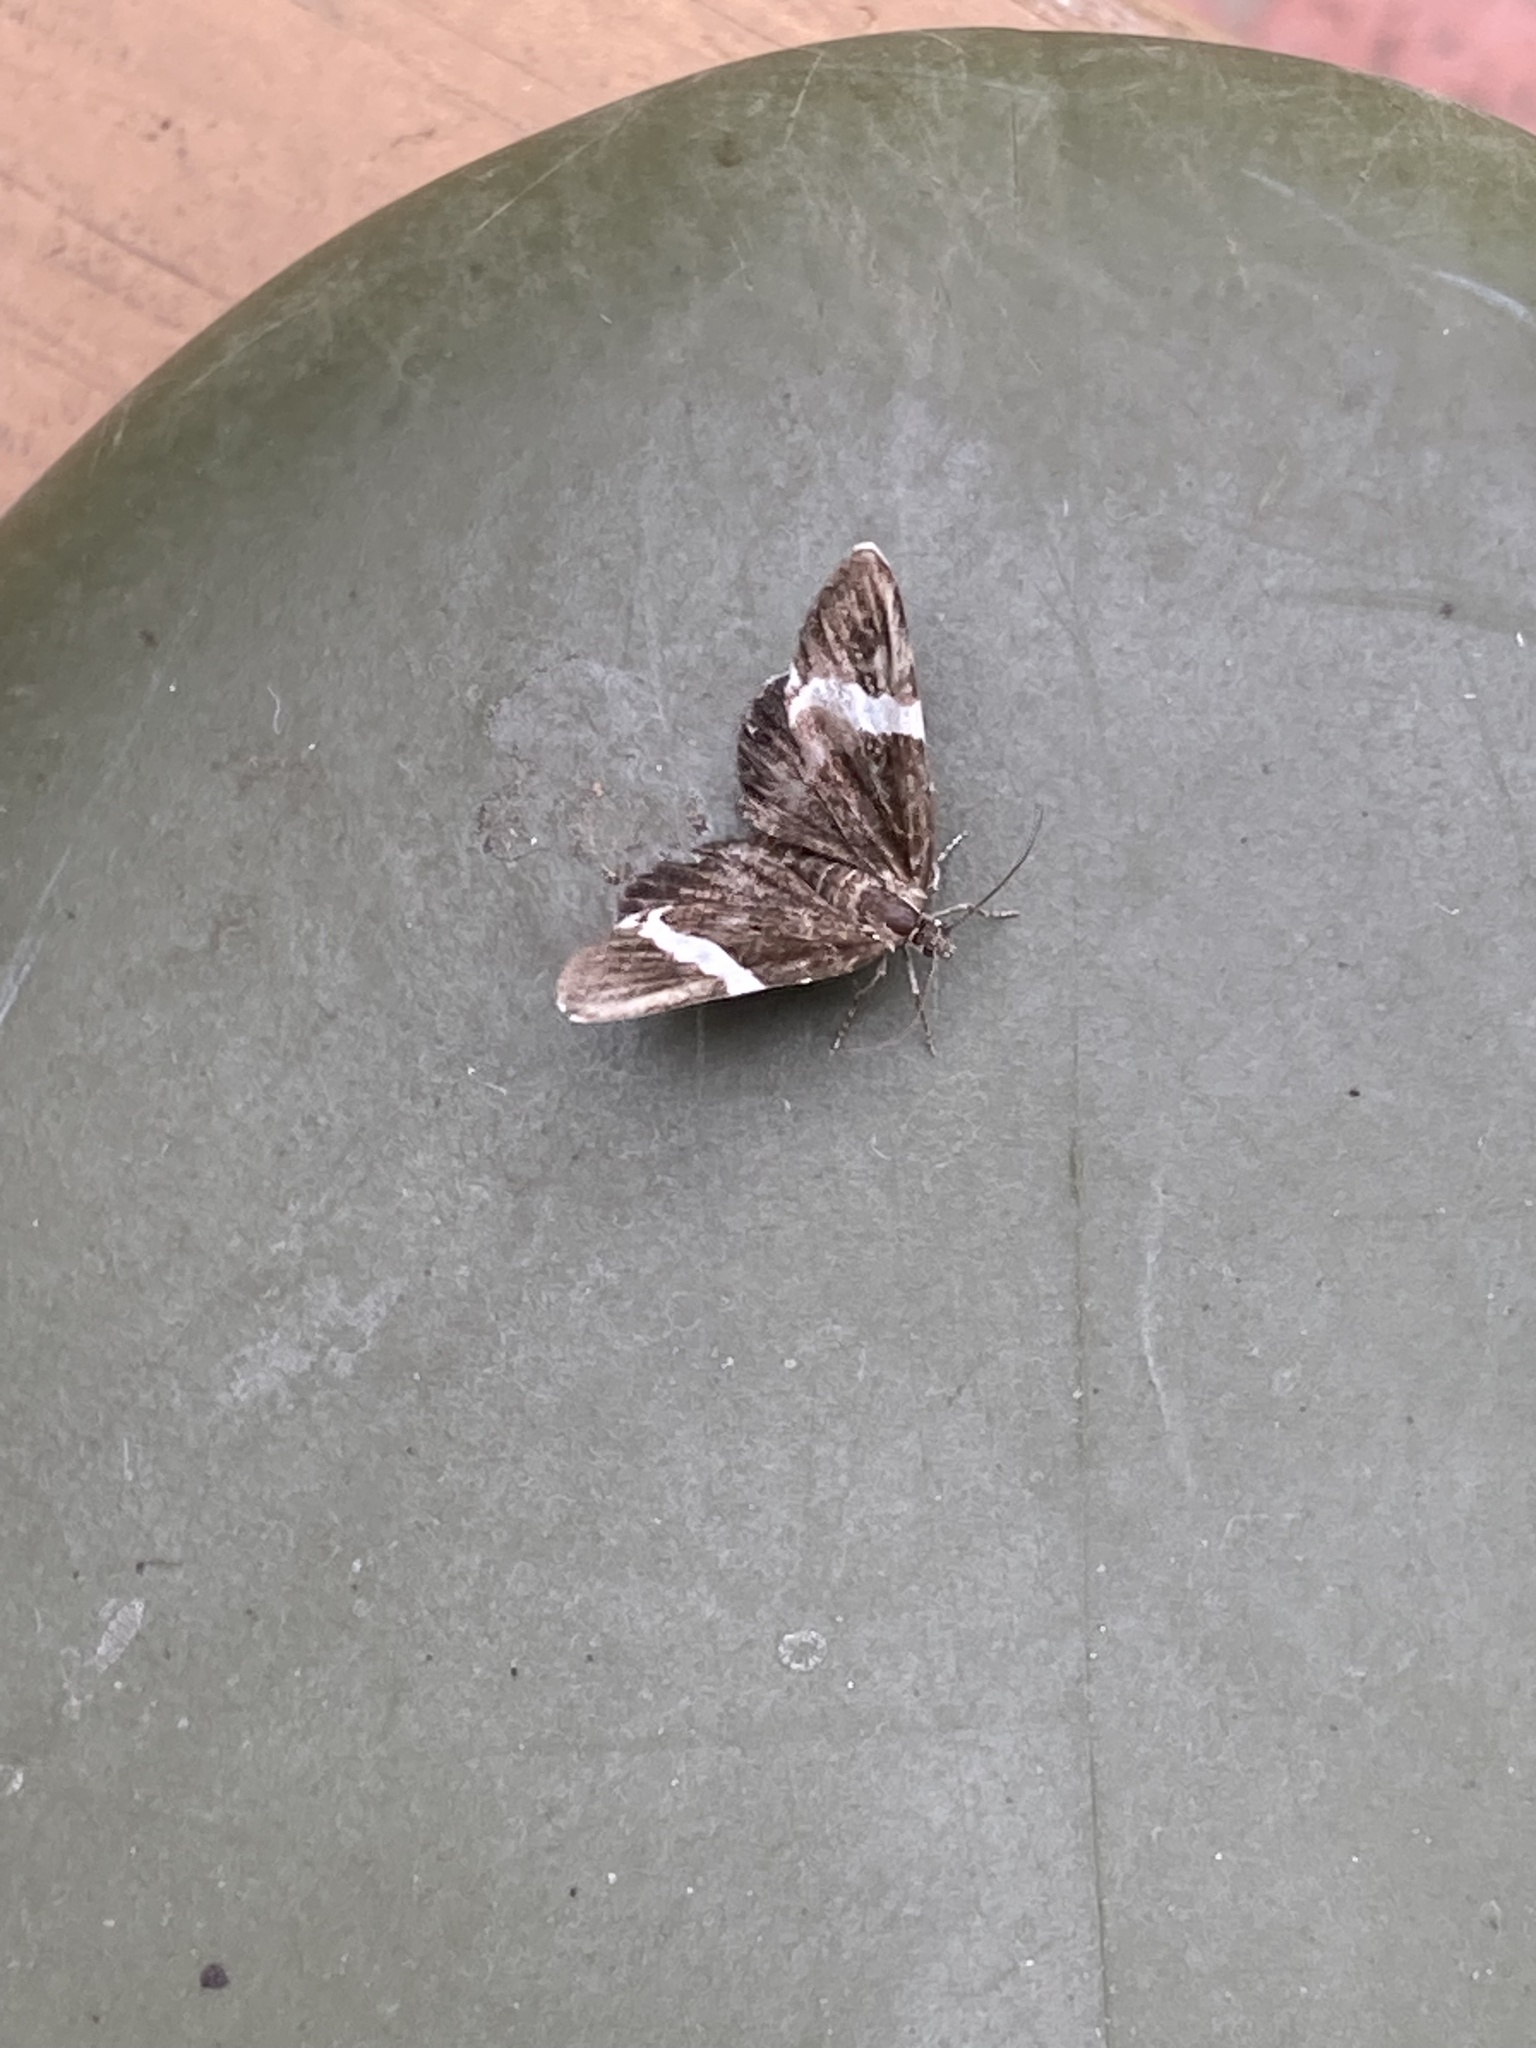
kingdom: Animalia
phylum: Arthropoda
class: Insecta
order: Lepidoptera
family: Geometridae
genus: Trichodezia
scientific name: Trichodezia albovittata
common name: White striped black
